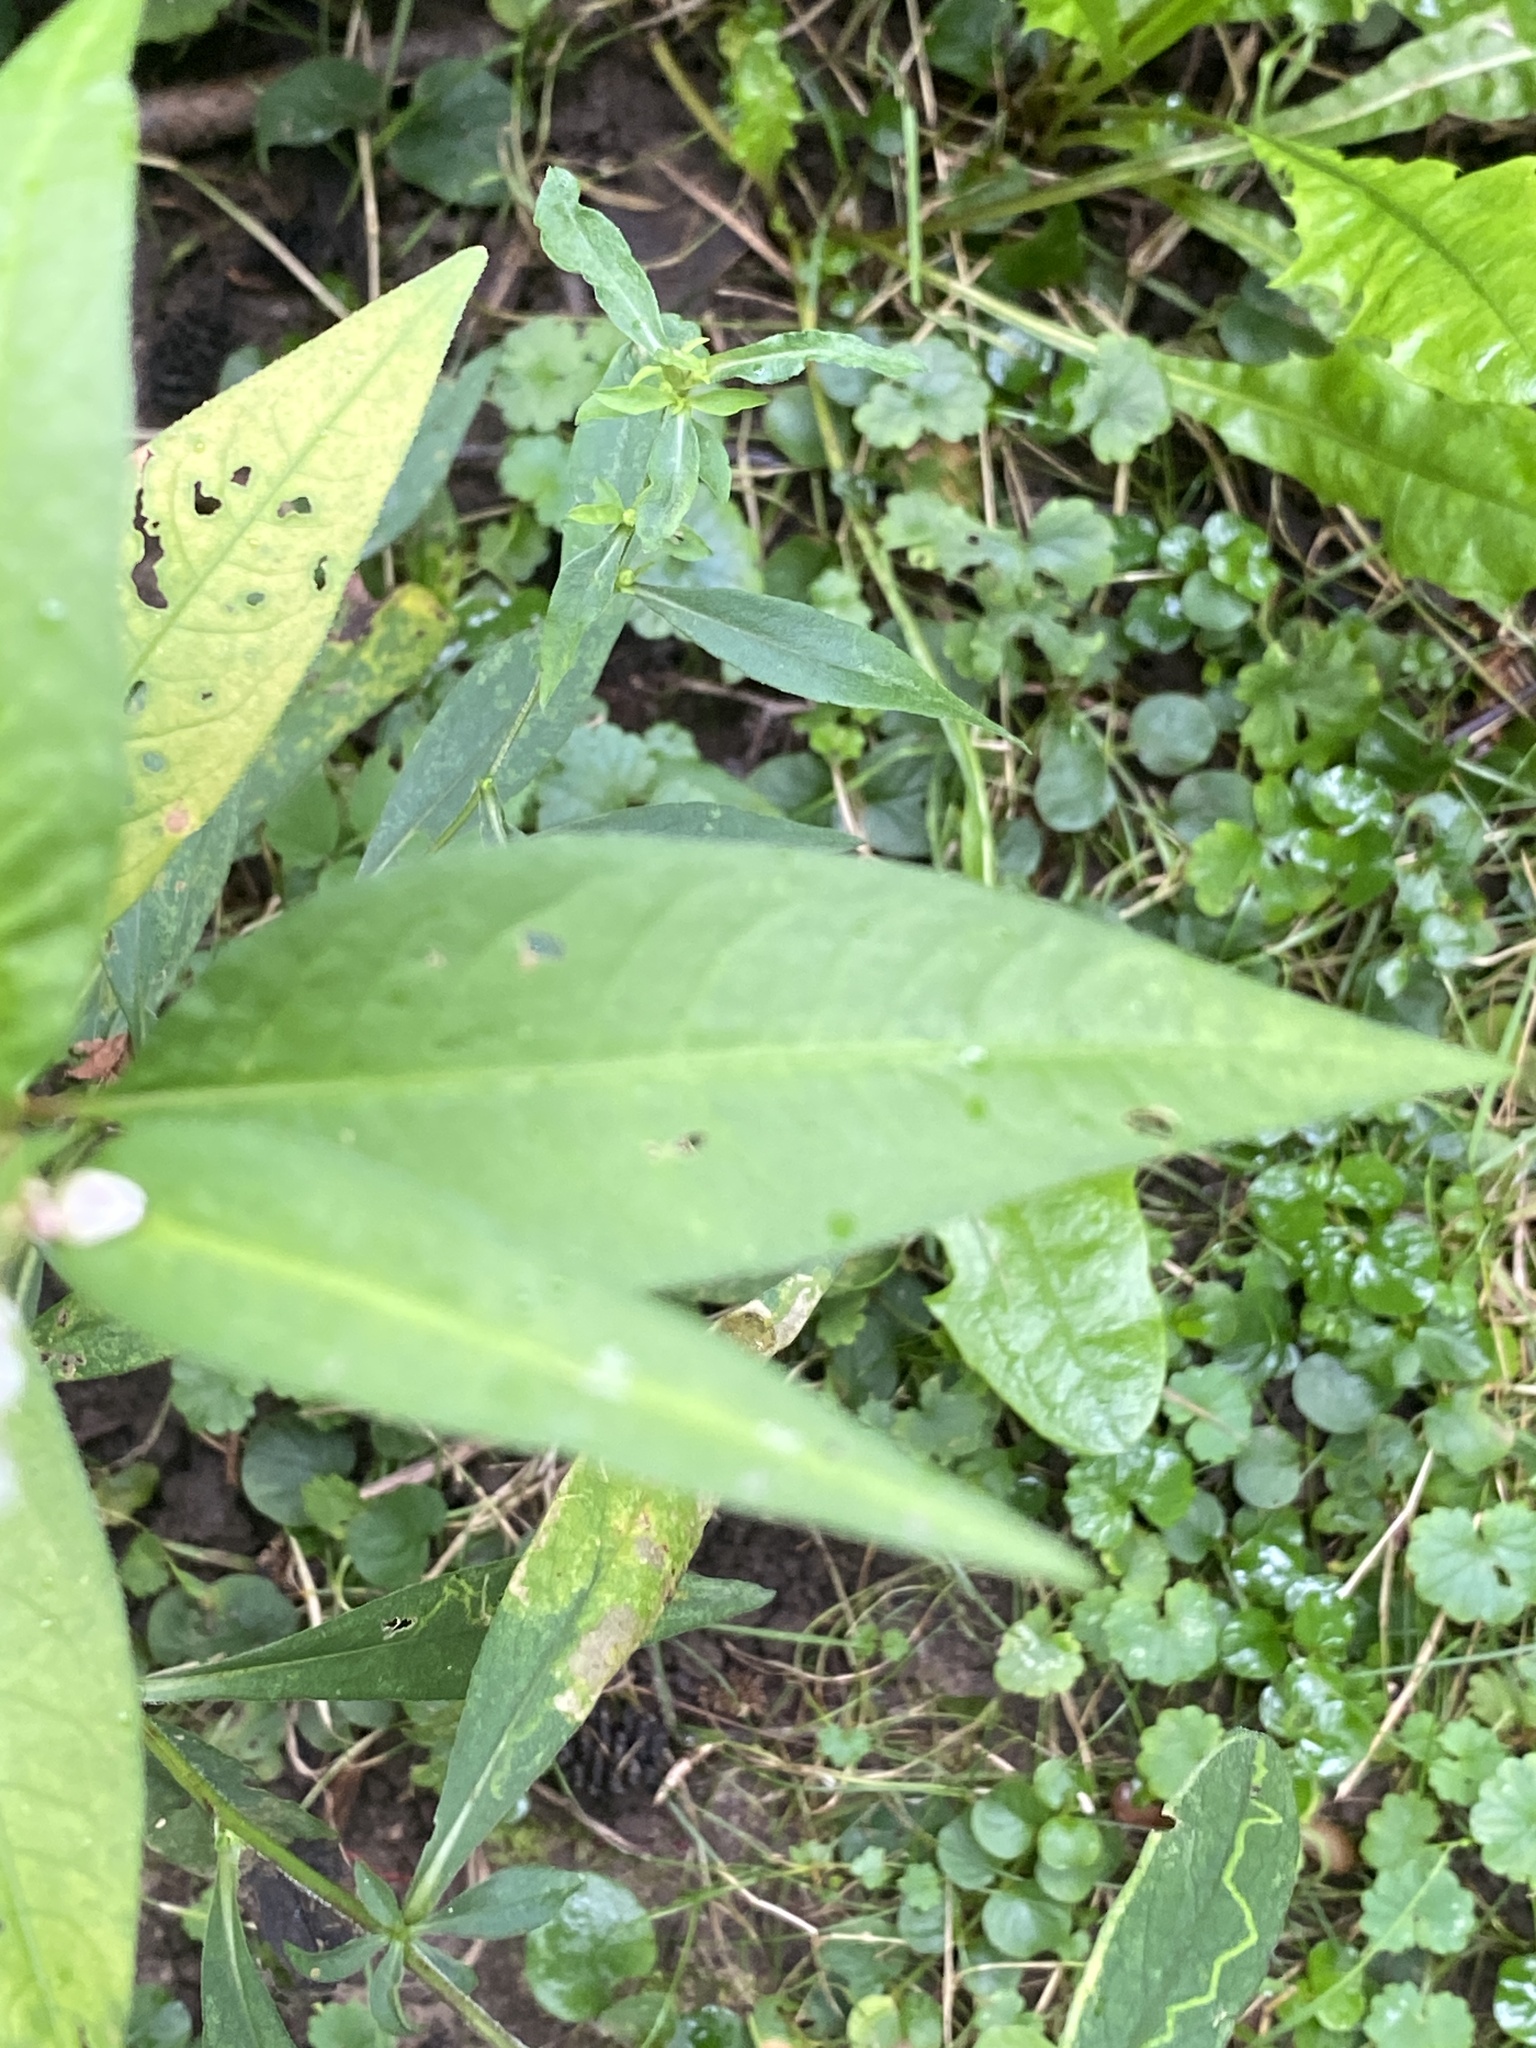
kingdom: Plantae
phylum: Tracheophyta
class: Magnoliopsida
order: Caryophyllales
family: Polygonaceae
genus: Persicaria
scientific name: Persicaria pensylvanica
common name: Pinkweed
